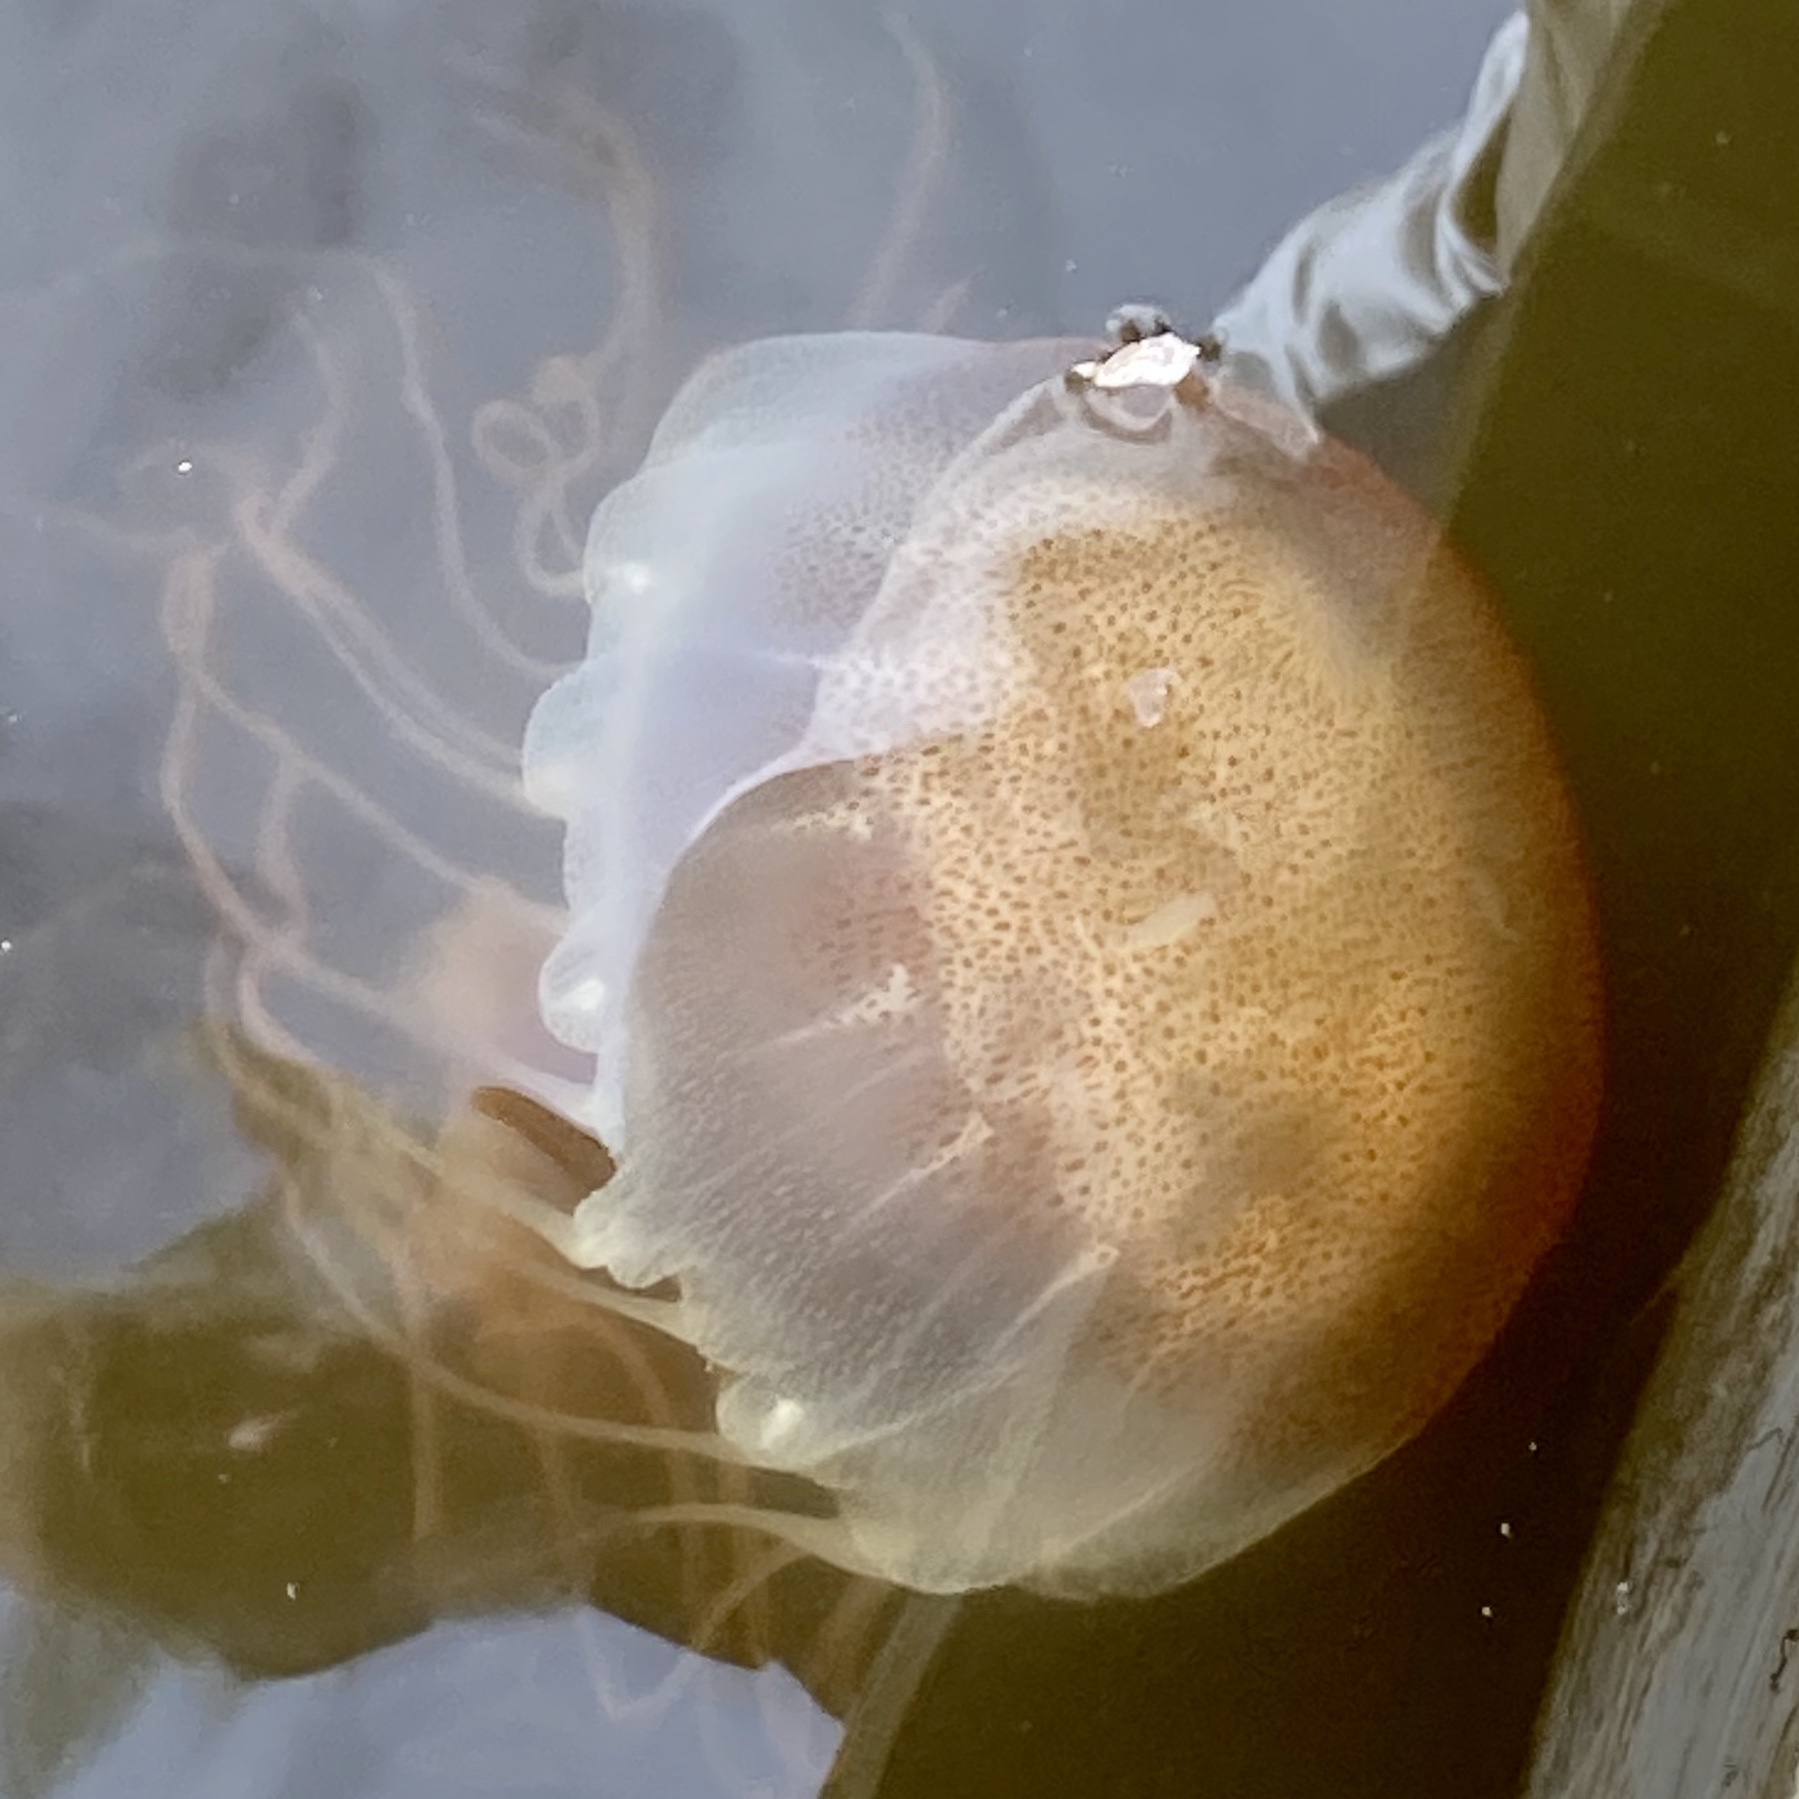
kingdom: Animalia
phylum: Cnidaria
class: Scyphozoa
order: Semaeostomeae
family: Pelagiidae
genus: Chrysaora
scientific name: Chrysaora chesapeakei
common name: Bay nettle
